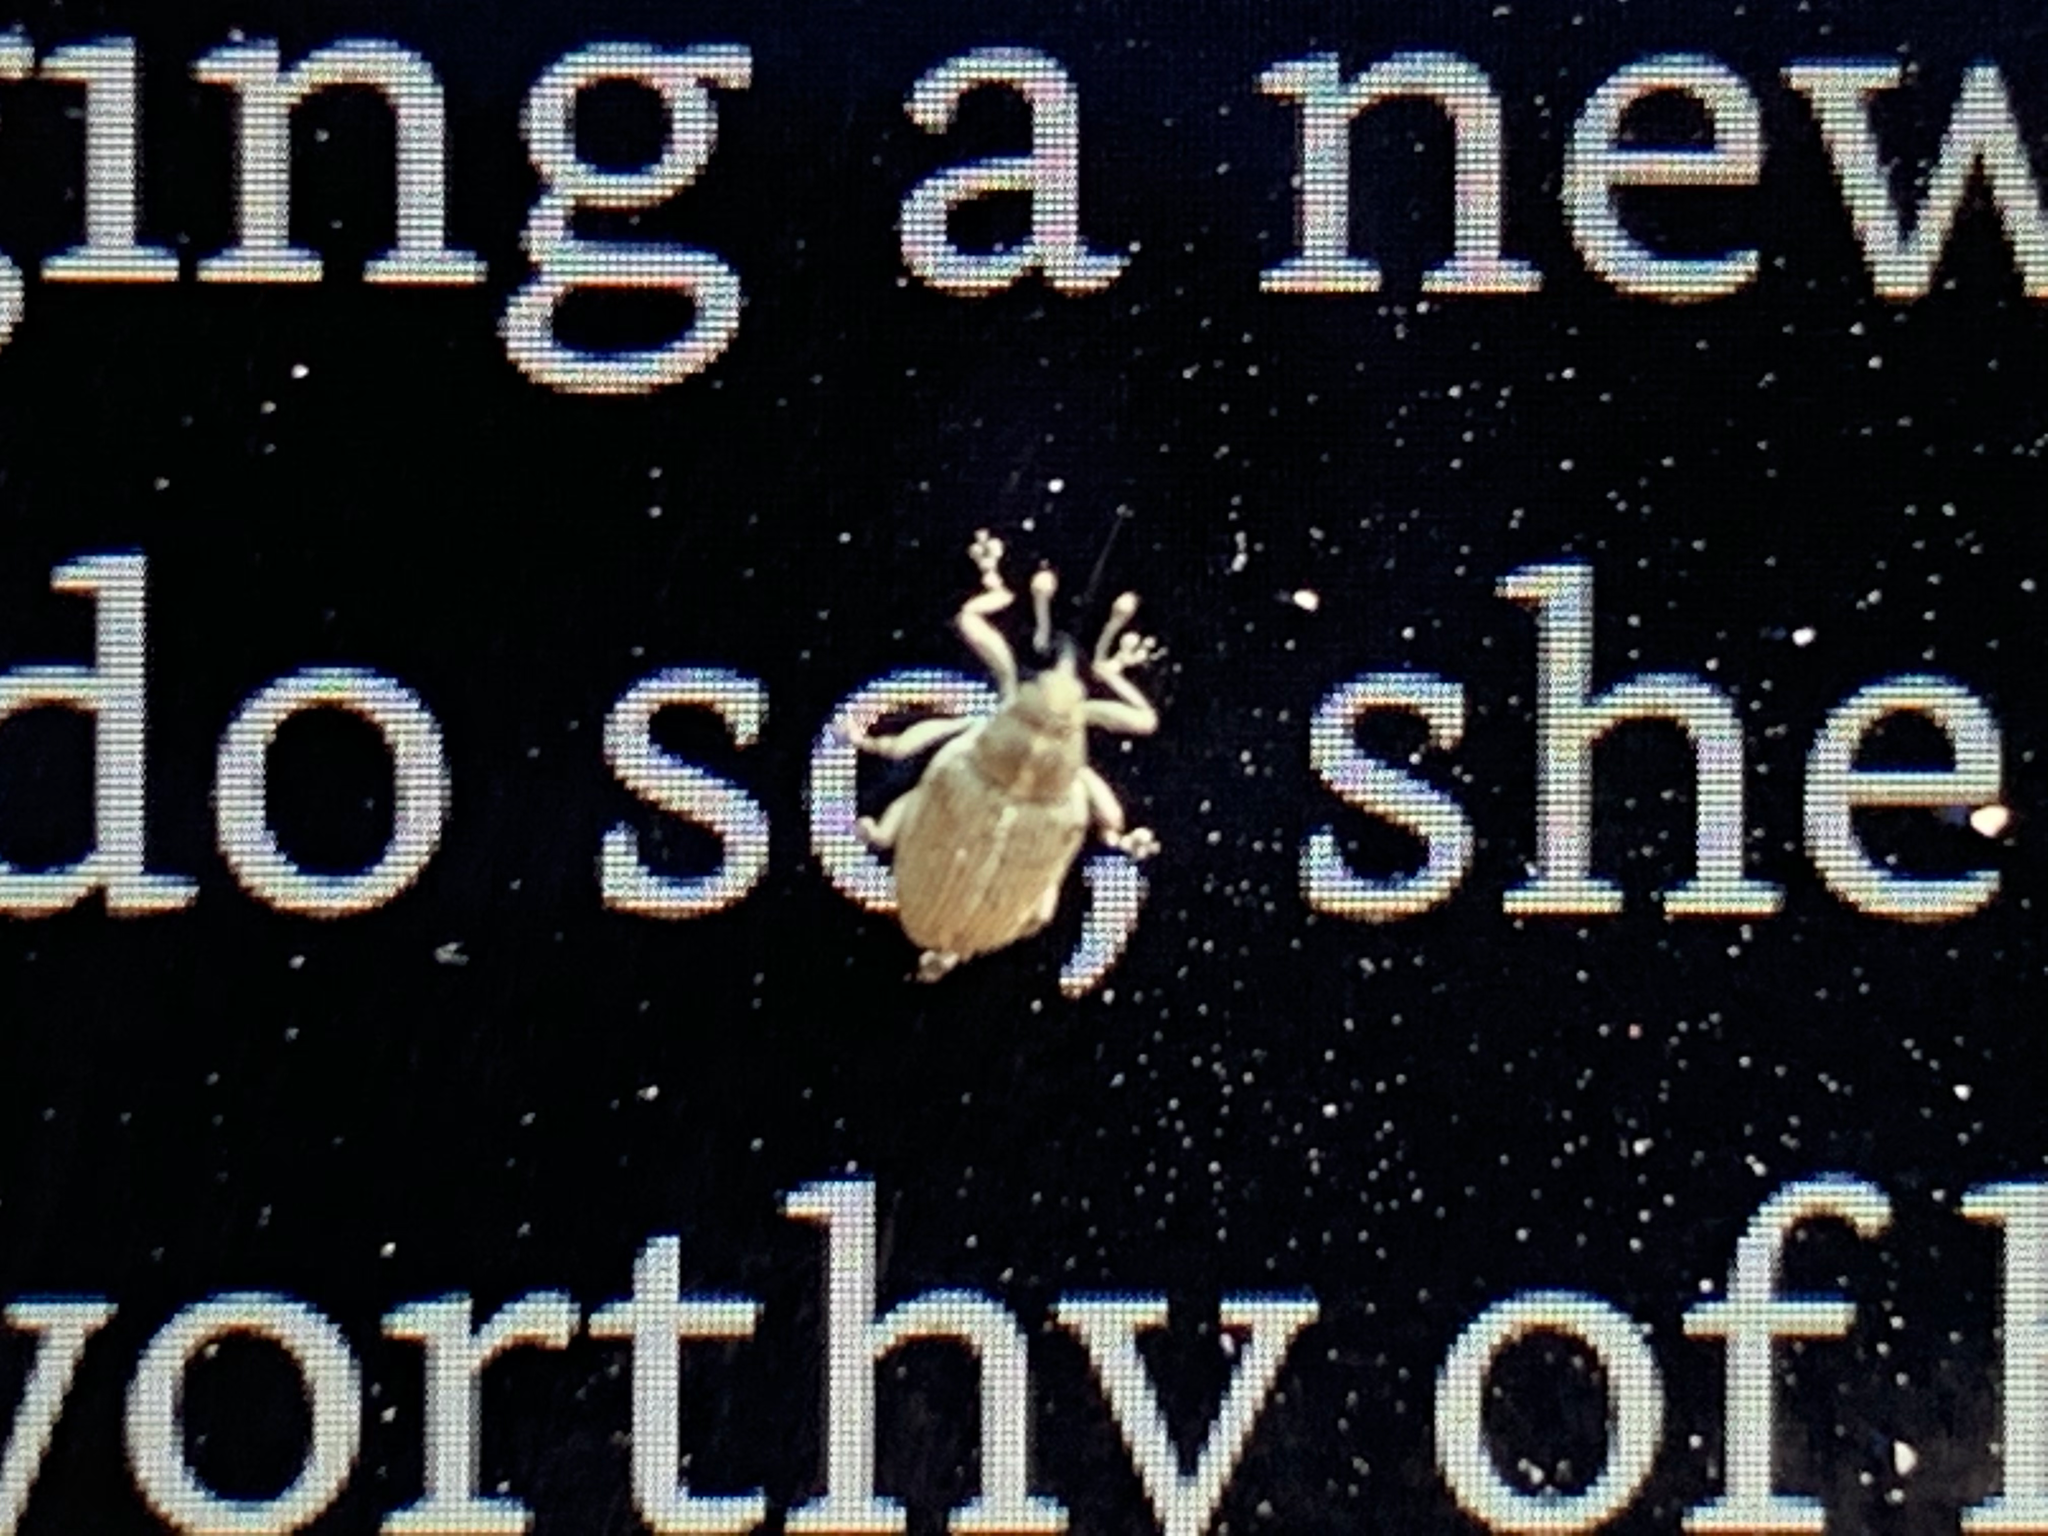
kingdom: Animalia
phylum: Arthropoda
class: Insecta
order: Coleoptera
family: Curculionidae
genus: Ceutorhynchus
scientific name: Ceutorhynchus obstrictus
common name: Cabbage seed weevil
